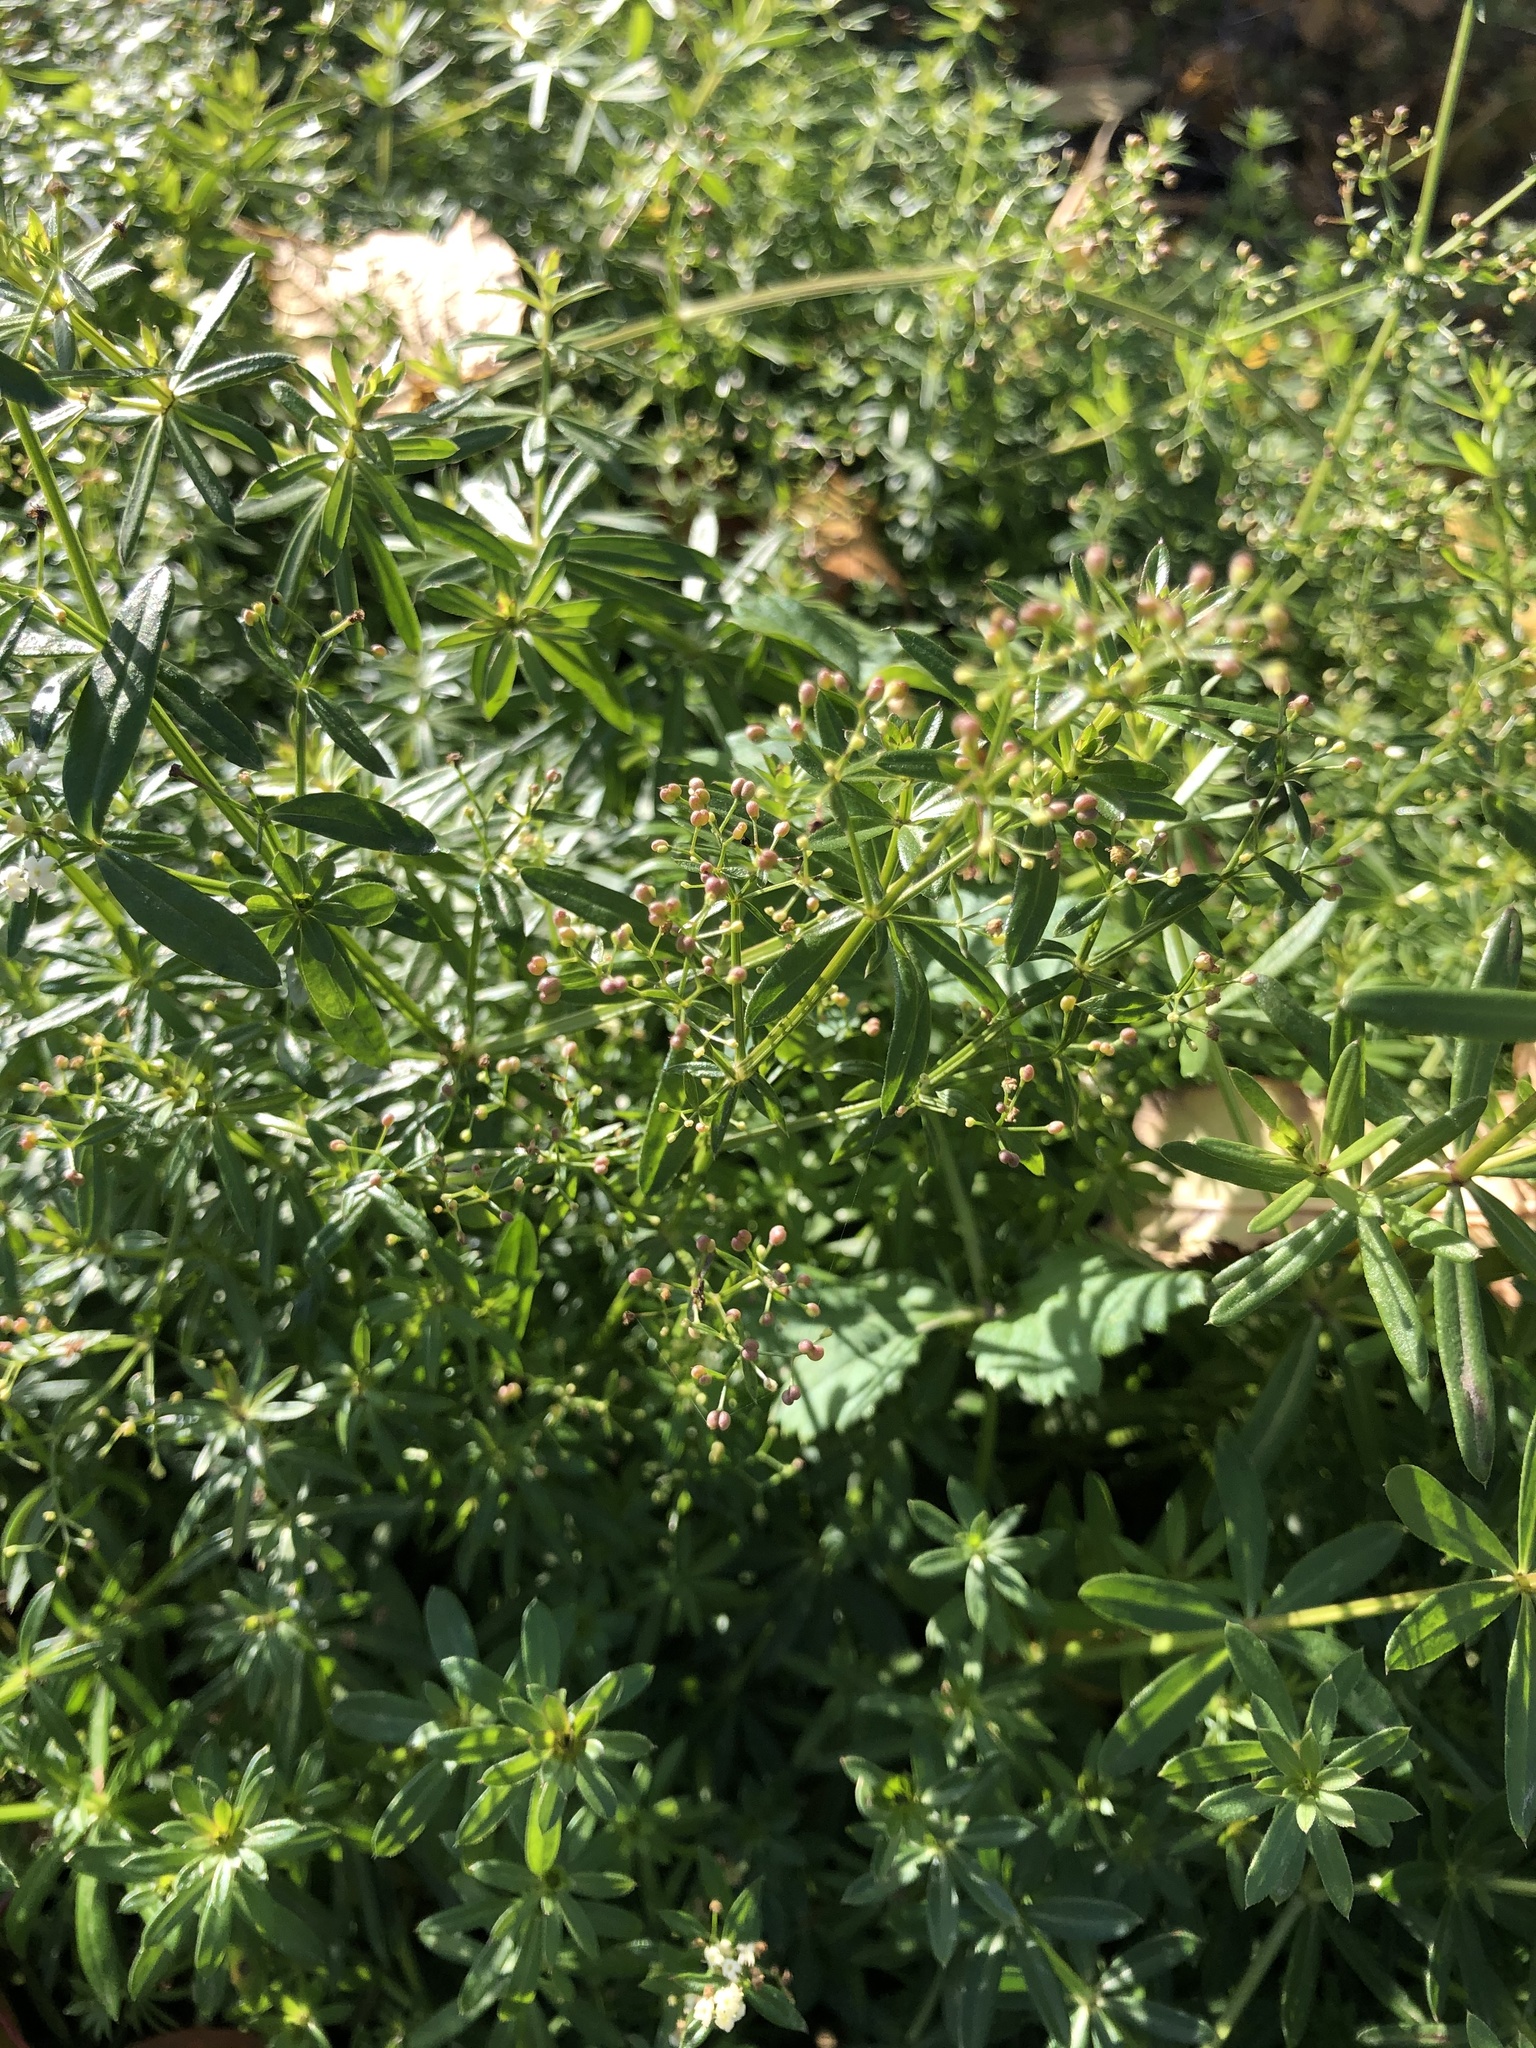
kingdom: Plantae
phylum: Tracheophyta
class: Magnoliopsida
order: Gentianales
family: Rubiaceae
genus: Galium
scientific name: Galium mollugo
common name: Hedge bedstraw
